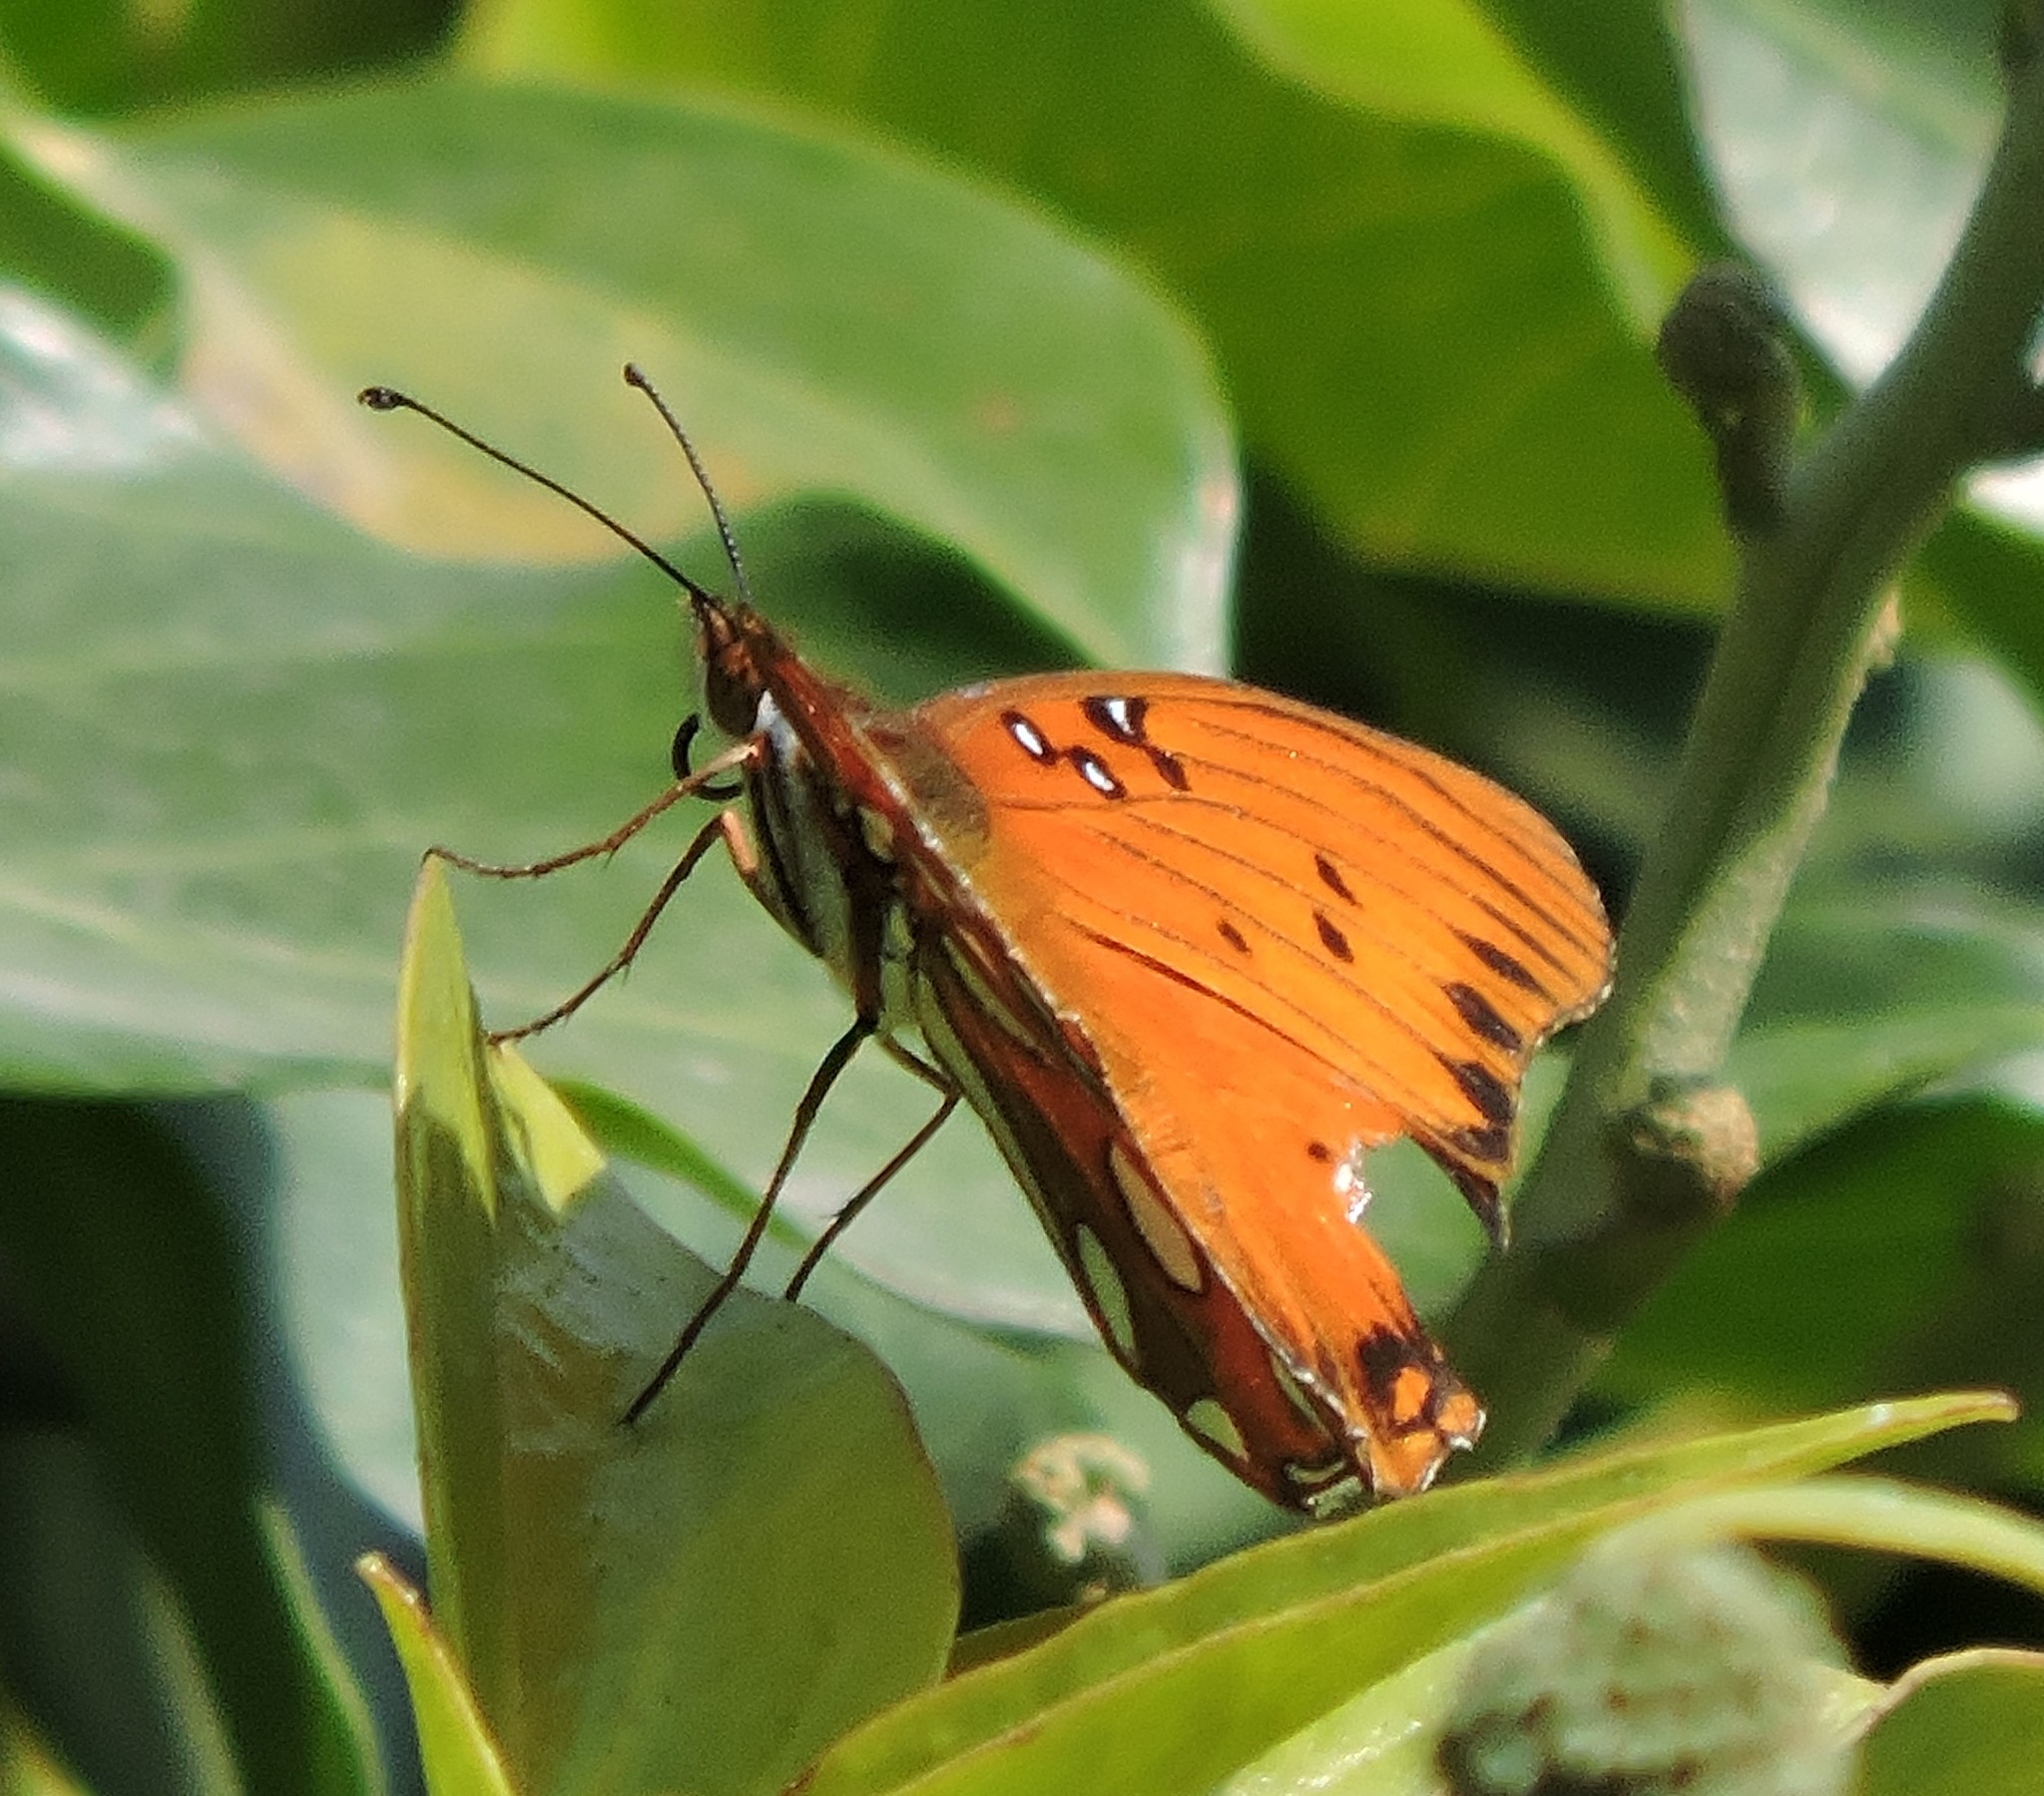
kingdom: Animalia
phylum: Arthropoda
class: Insecta
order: Lepidoptera
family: Nymphalidae
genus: Dione
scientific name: Dione vanillae
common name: Gulf fritillary
